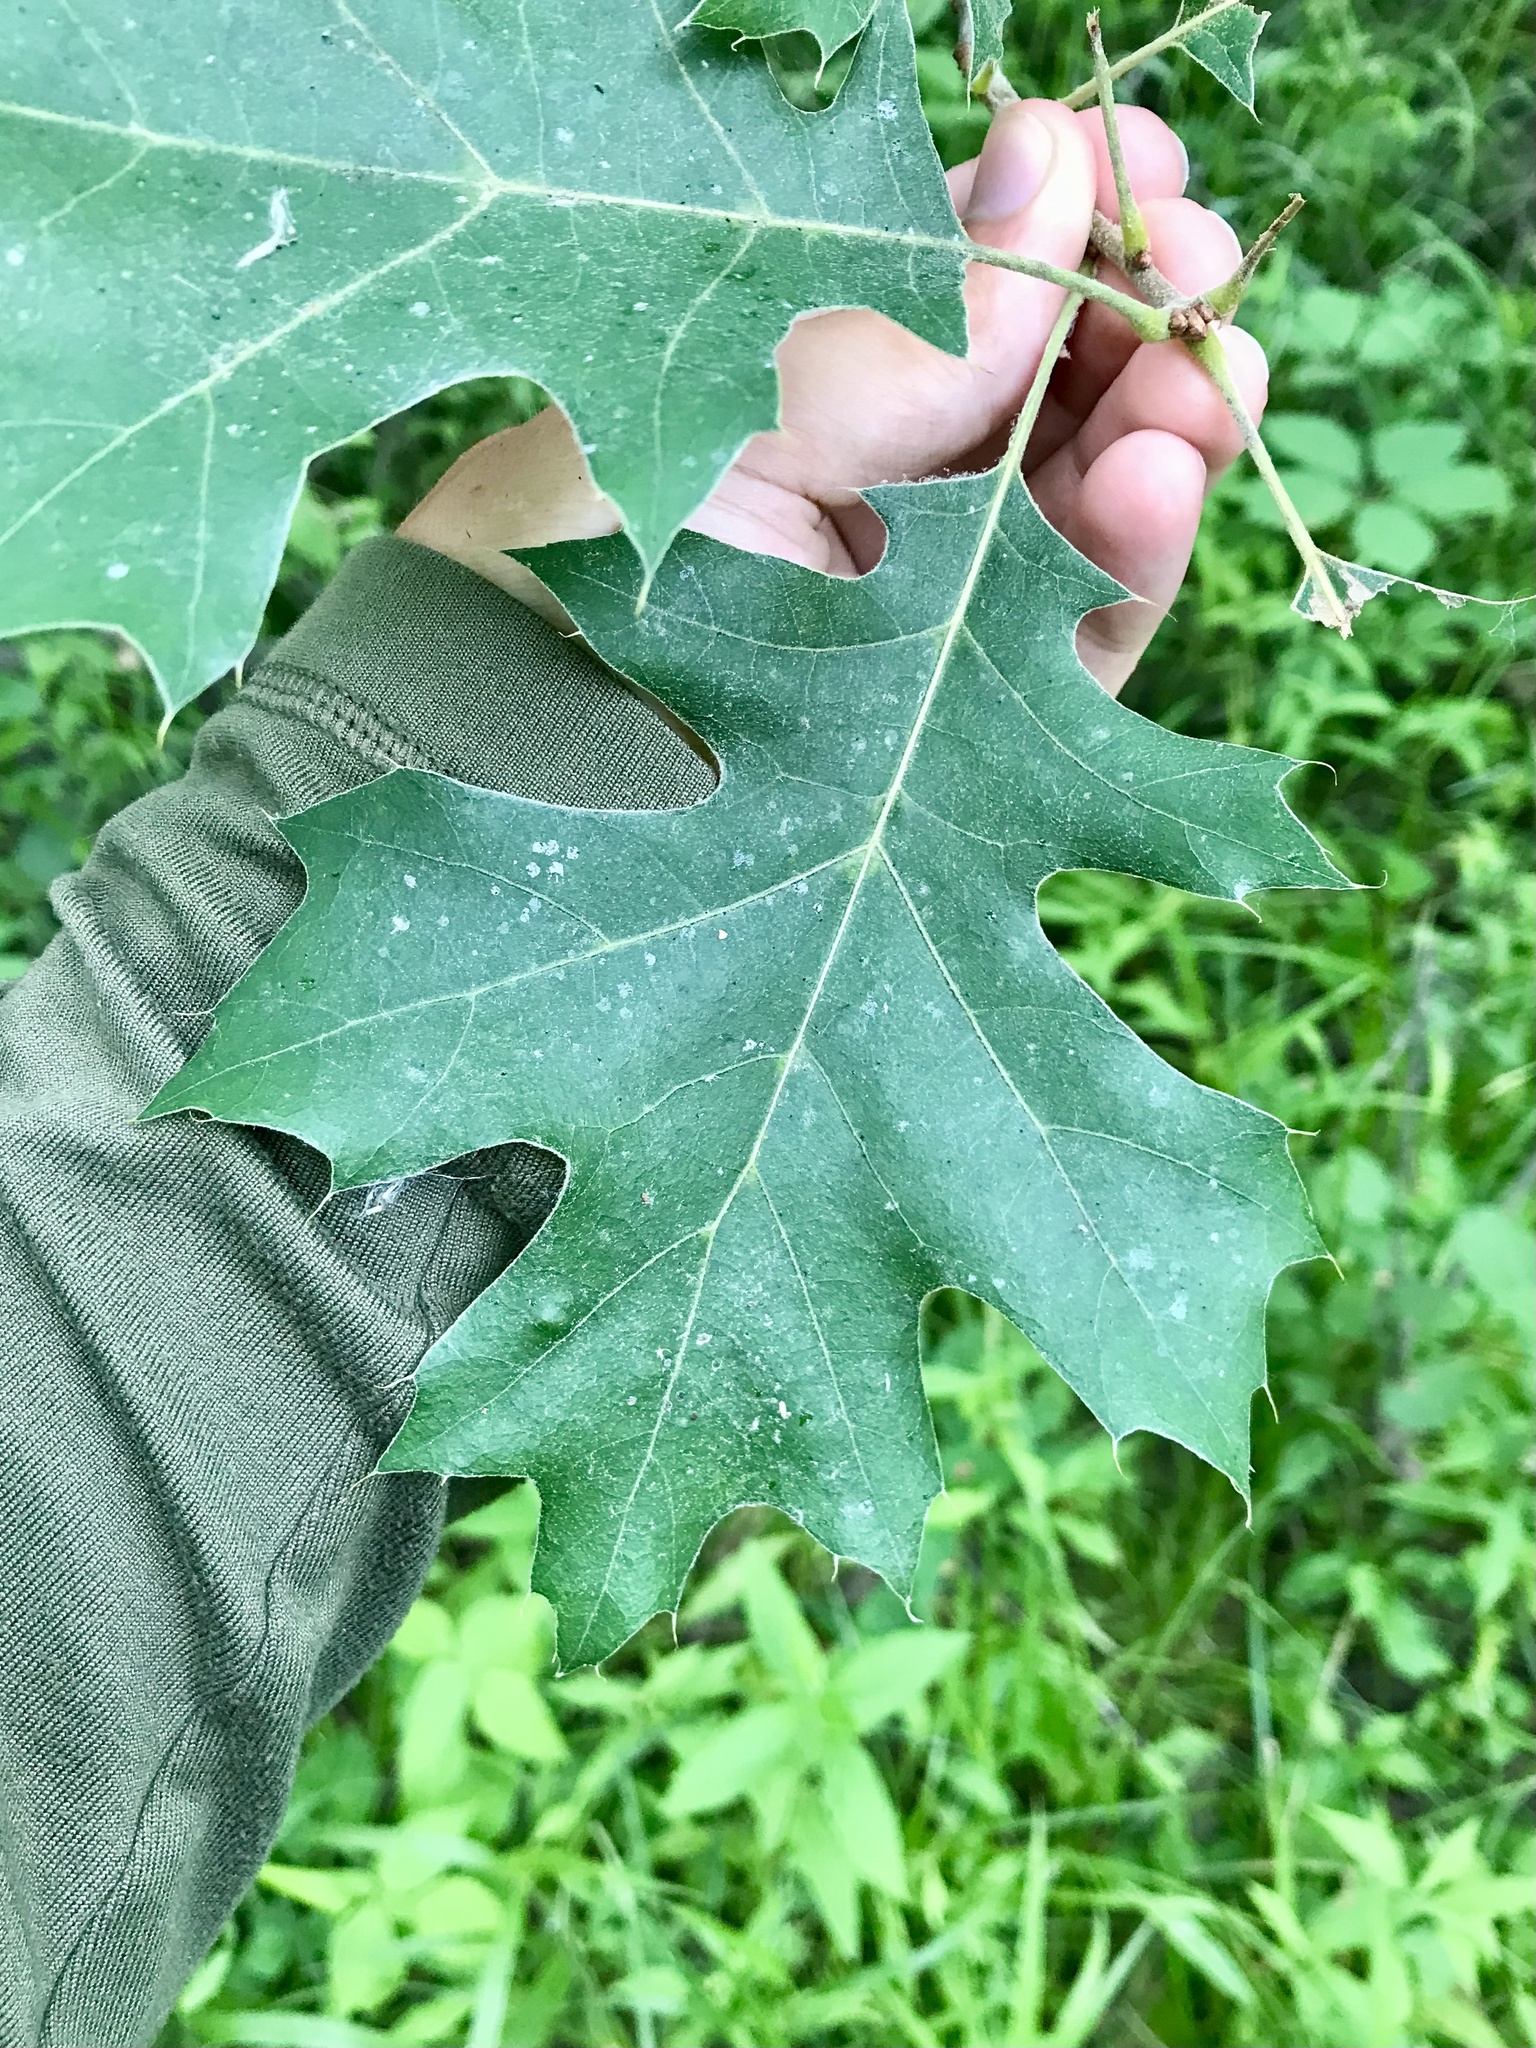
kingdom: Plantae
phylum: Tracheophyta
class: Magnoliopsida
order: Fagales
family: Fagaceae
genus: Quercus
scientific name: Quercus velutina
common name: Black oak
